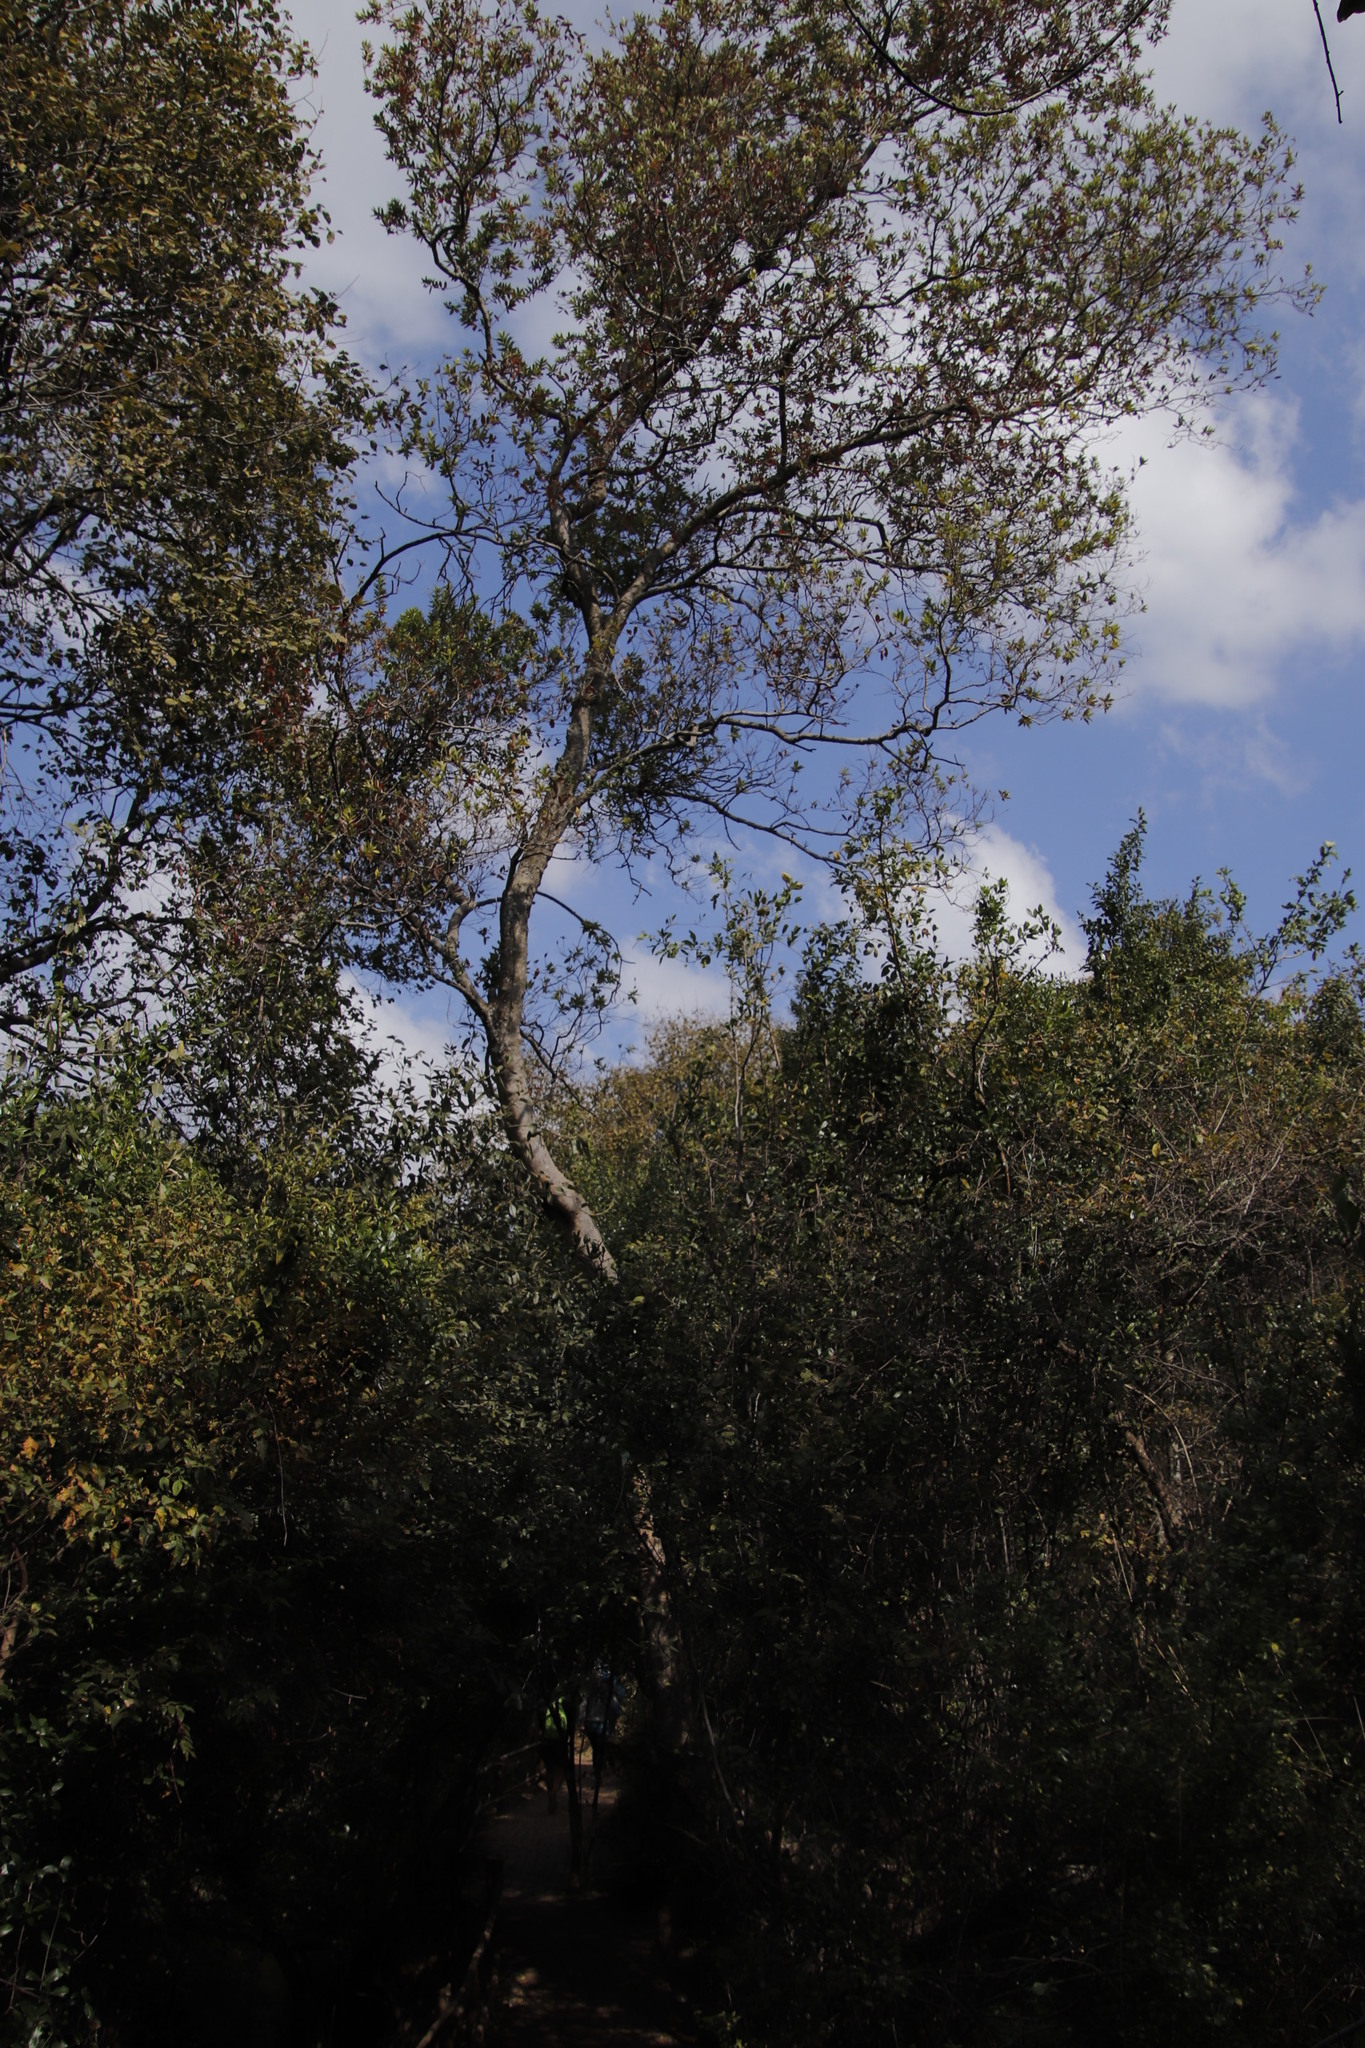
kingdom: Plantae
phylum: Tracheophyta
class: Magnoliopsida
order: Myrtales
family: Combretaceae
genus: Combretum
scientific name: Combretum erythrophyllum
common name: Bush-willow
